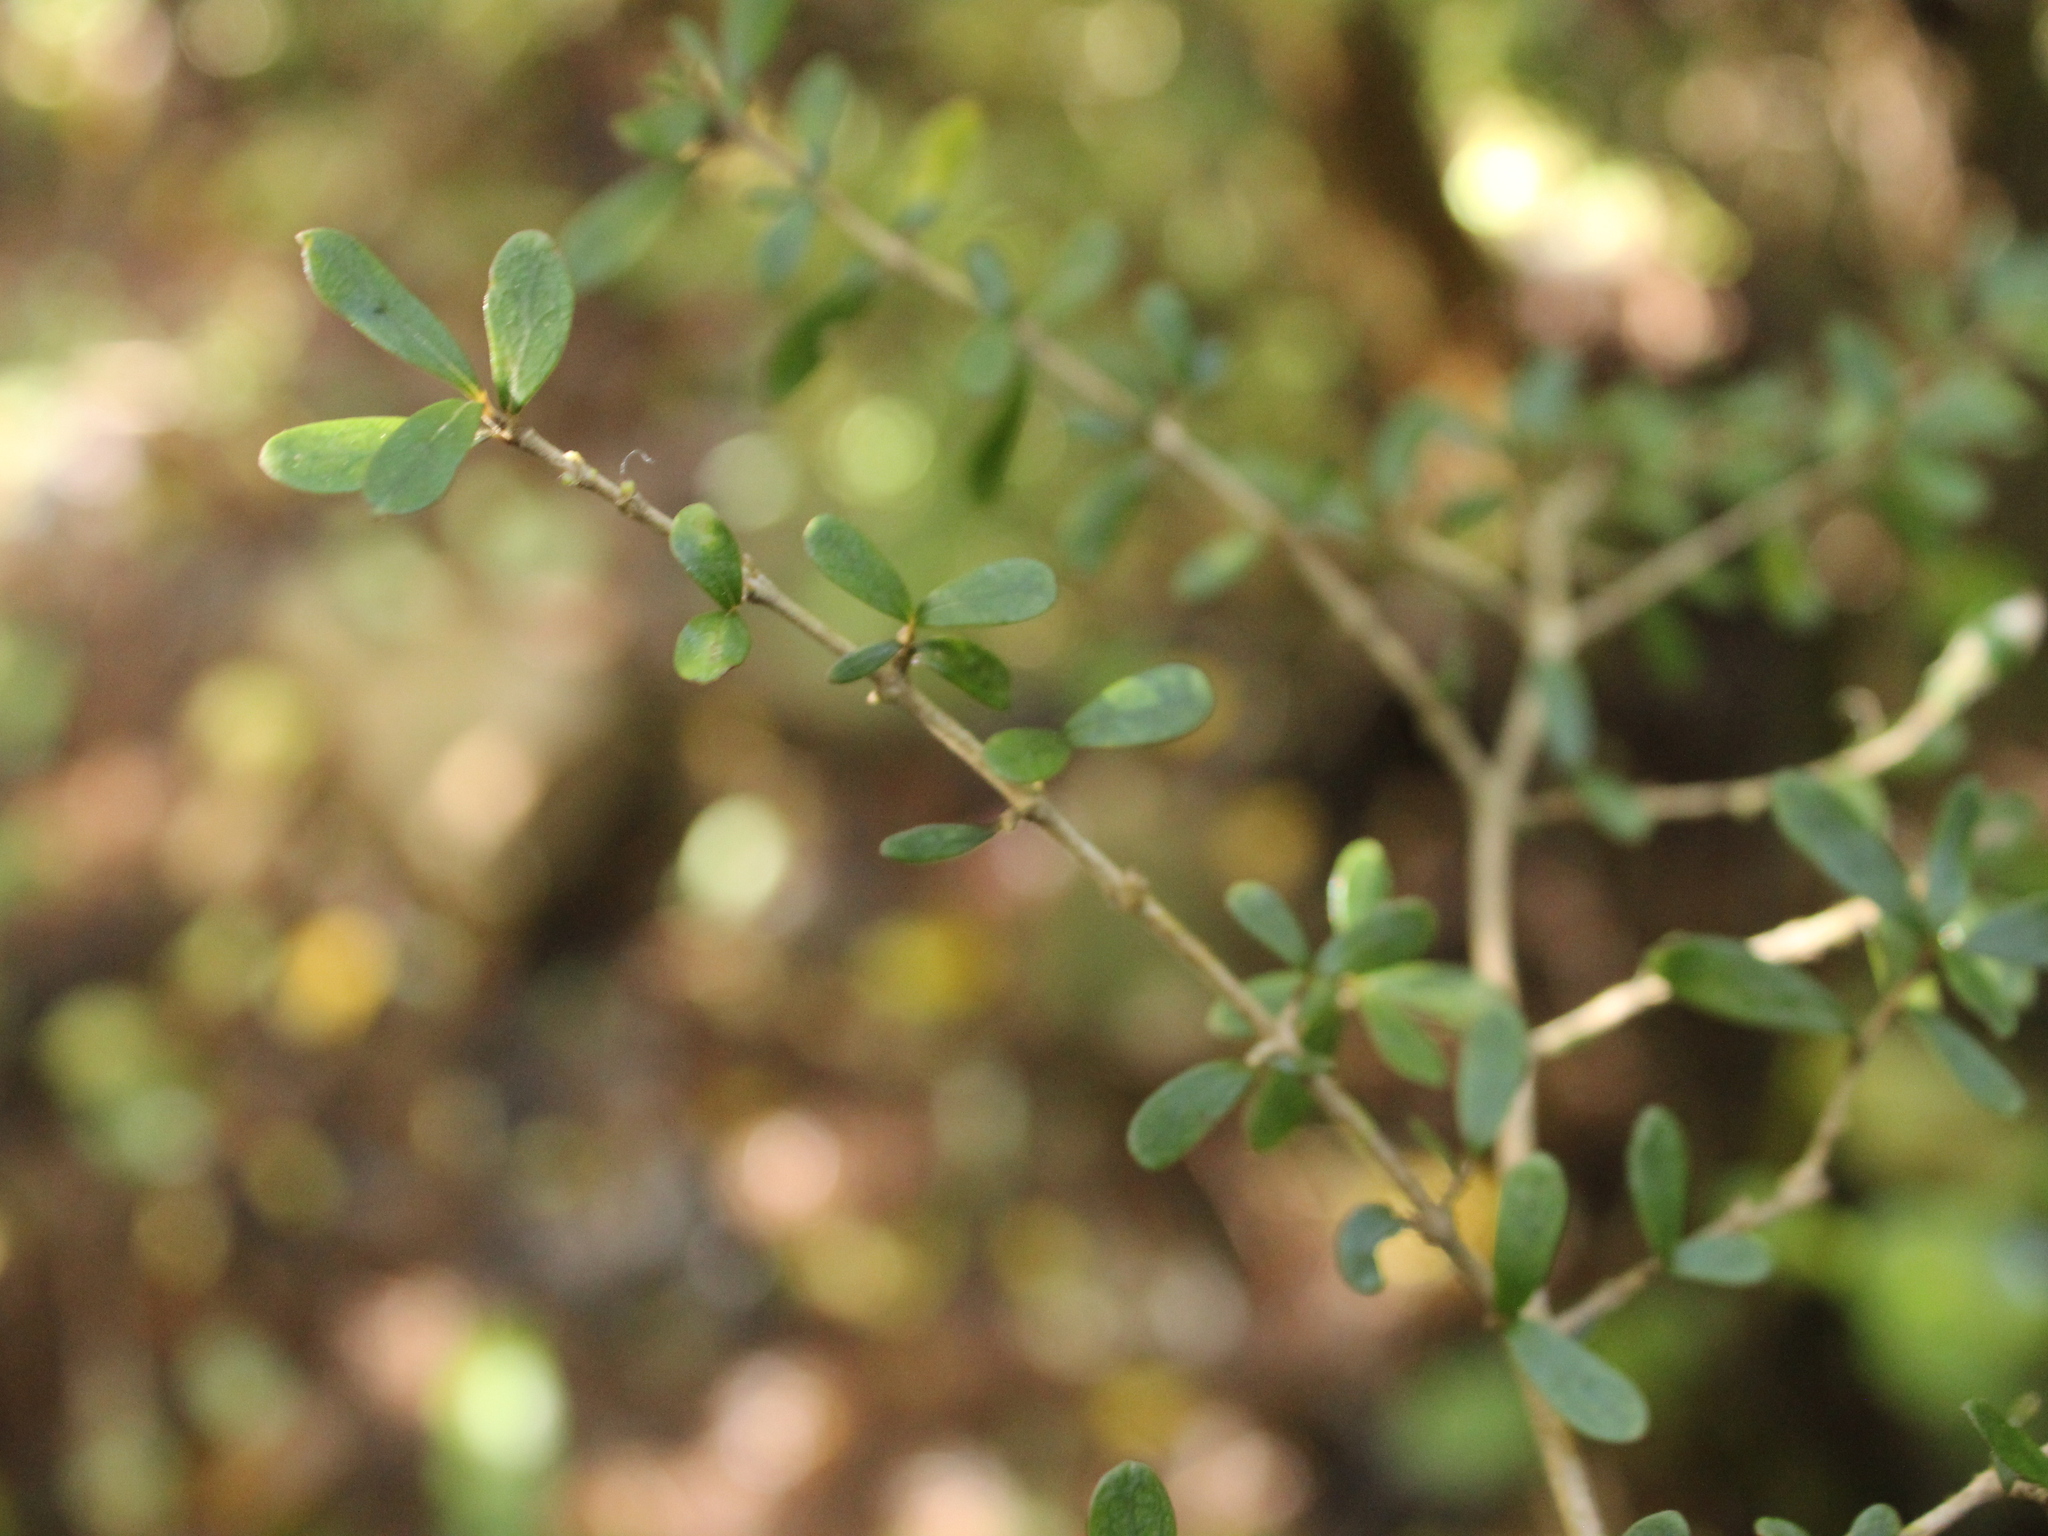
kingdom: Plantae
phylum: Tracheophyta
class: Magnoliopsida
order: Gentianales
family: Rubiaceae
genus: Coprosma
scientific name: Coprosma dumosa
